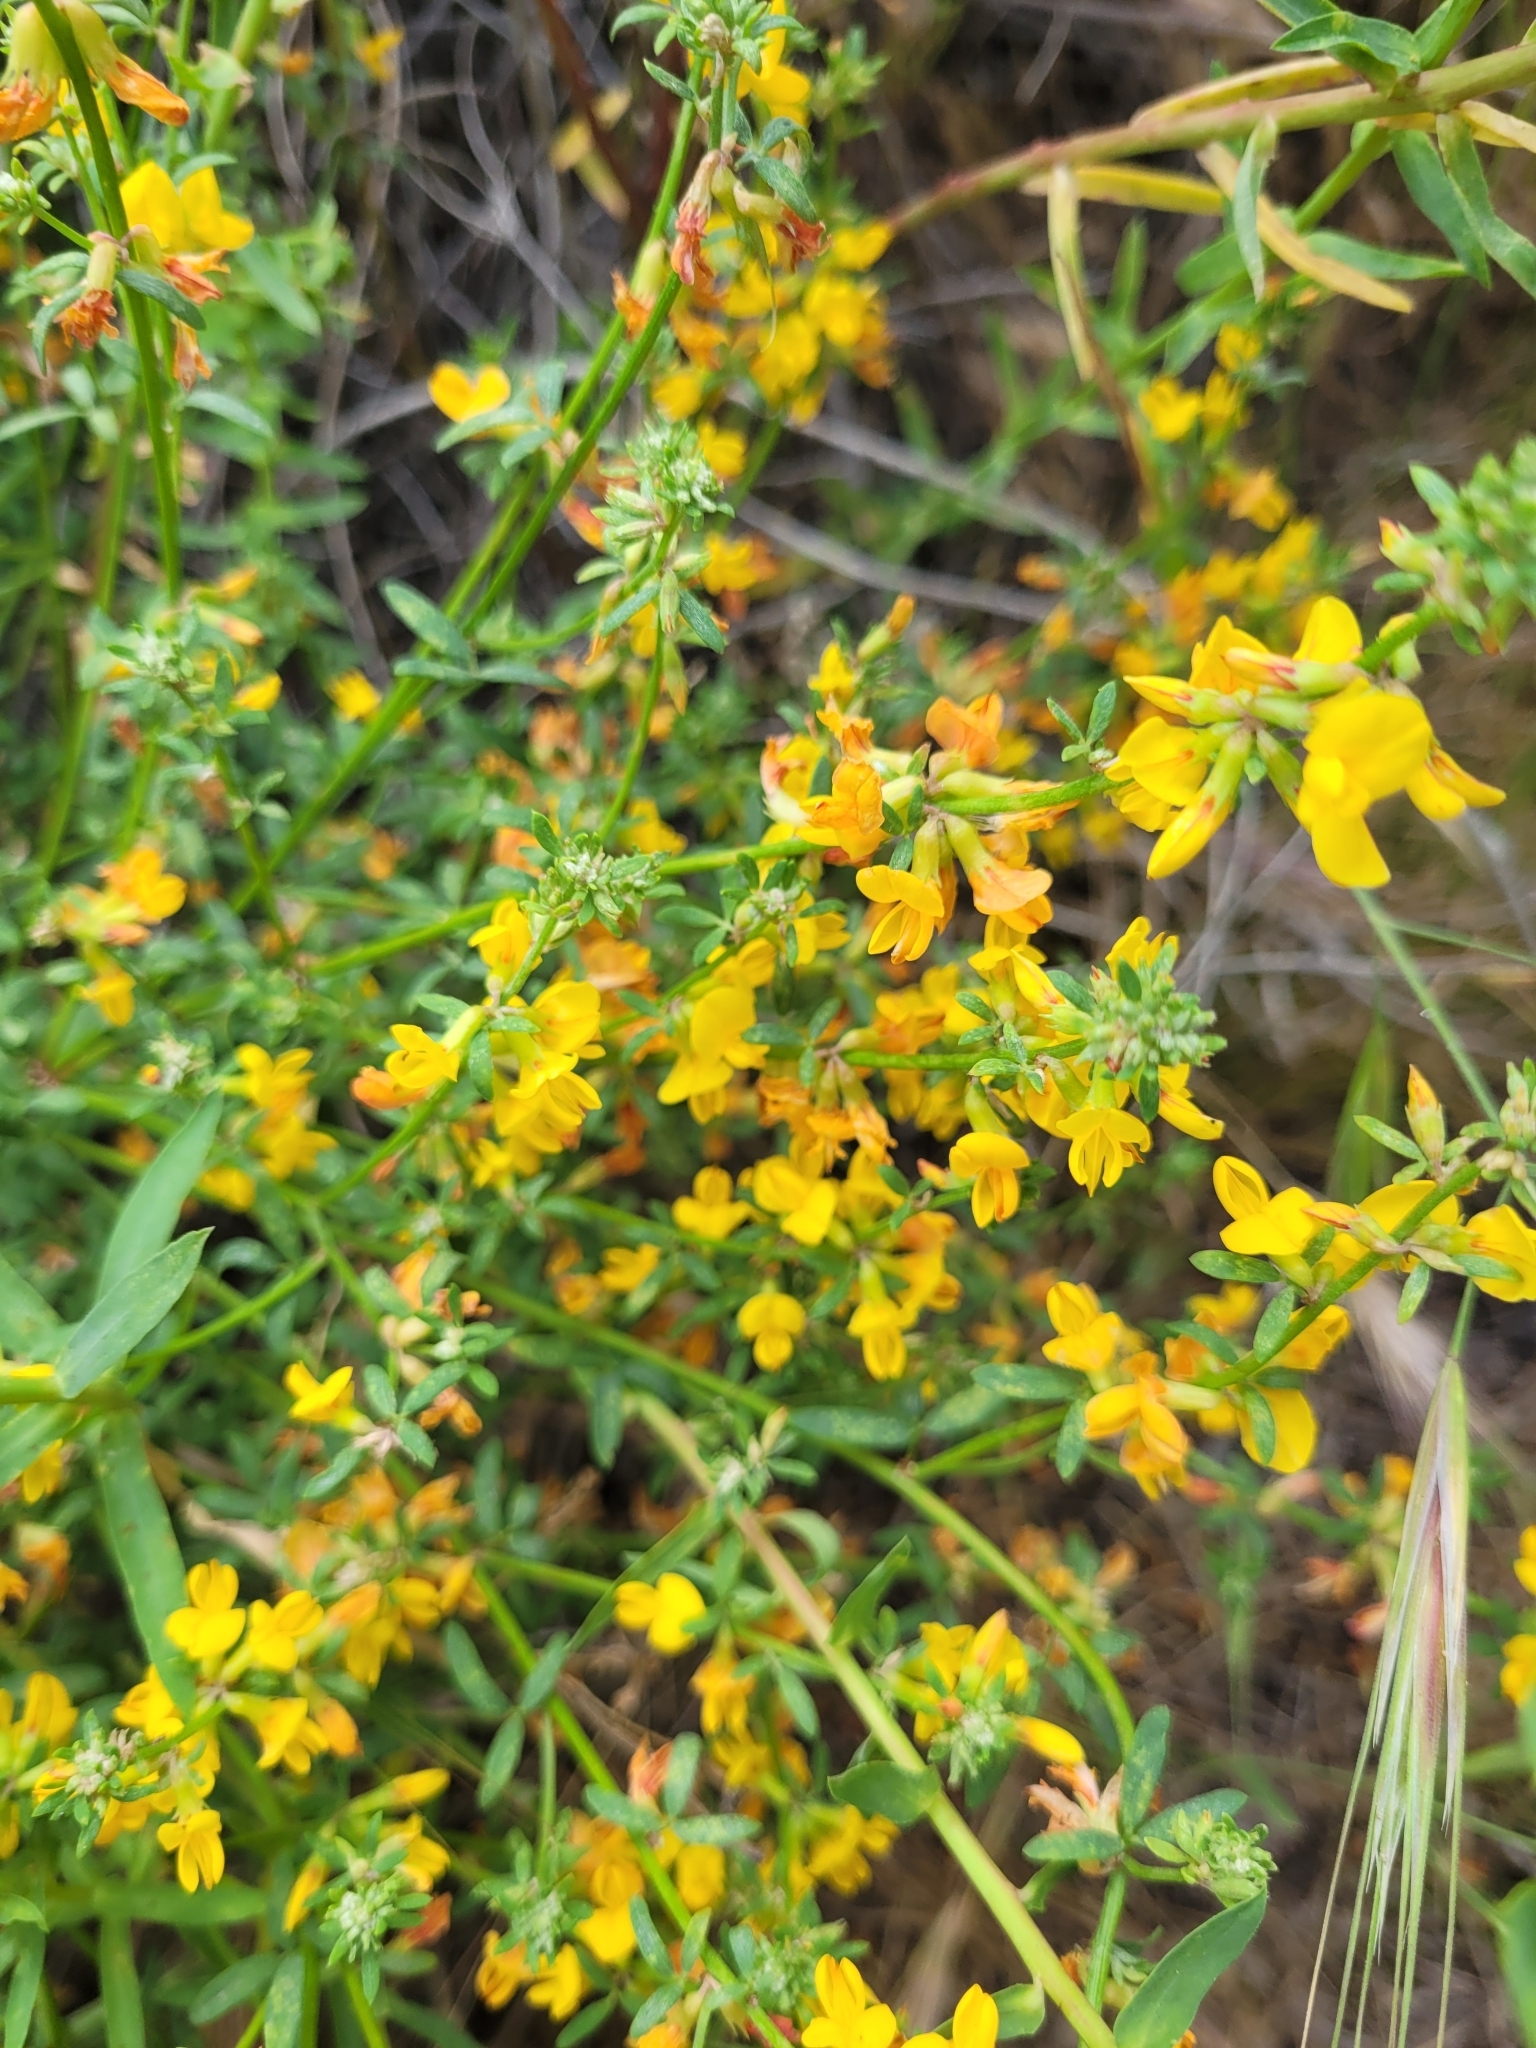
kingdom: Plantae
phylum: Tracheophyta
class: Magnoliopsida
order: Fabales
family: Fabaceae
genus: Acmispon
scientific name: Acmispon glaber
